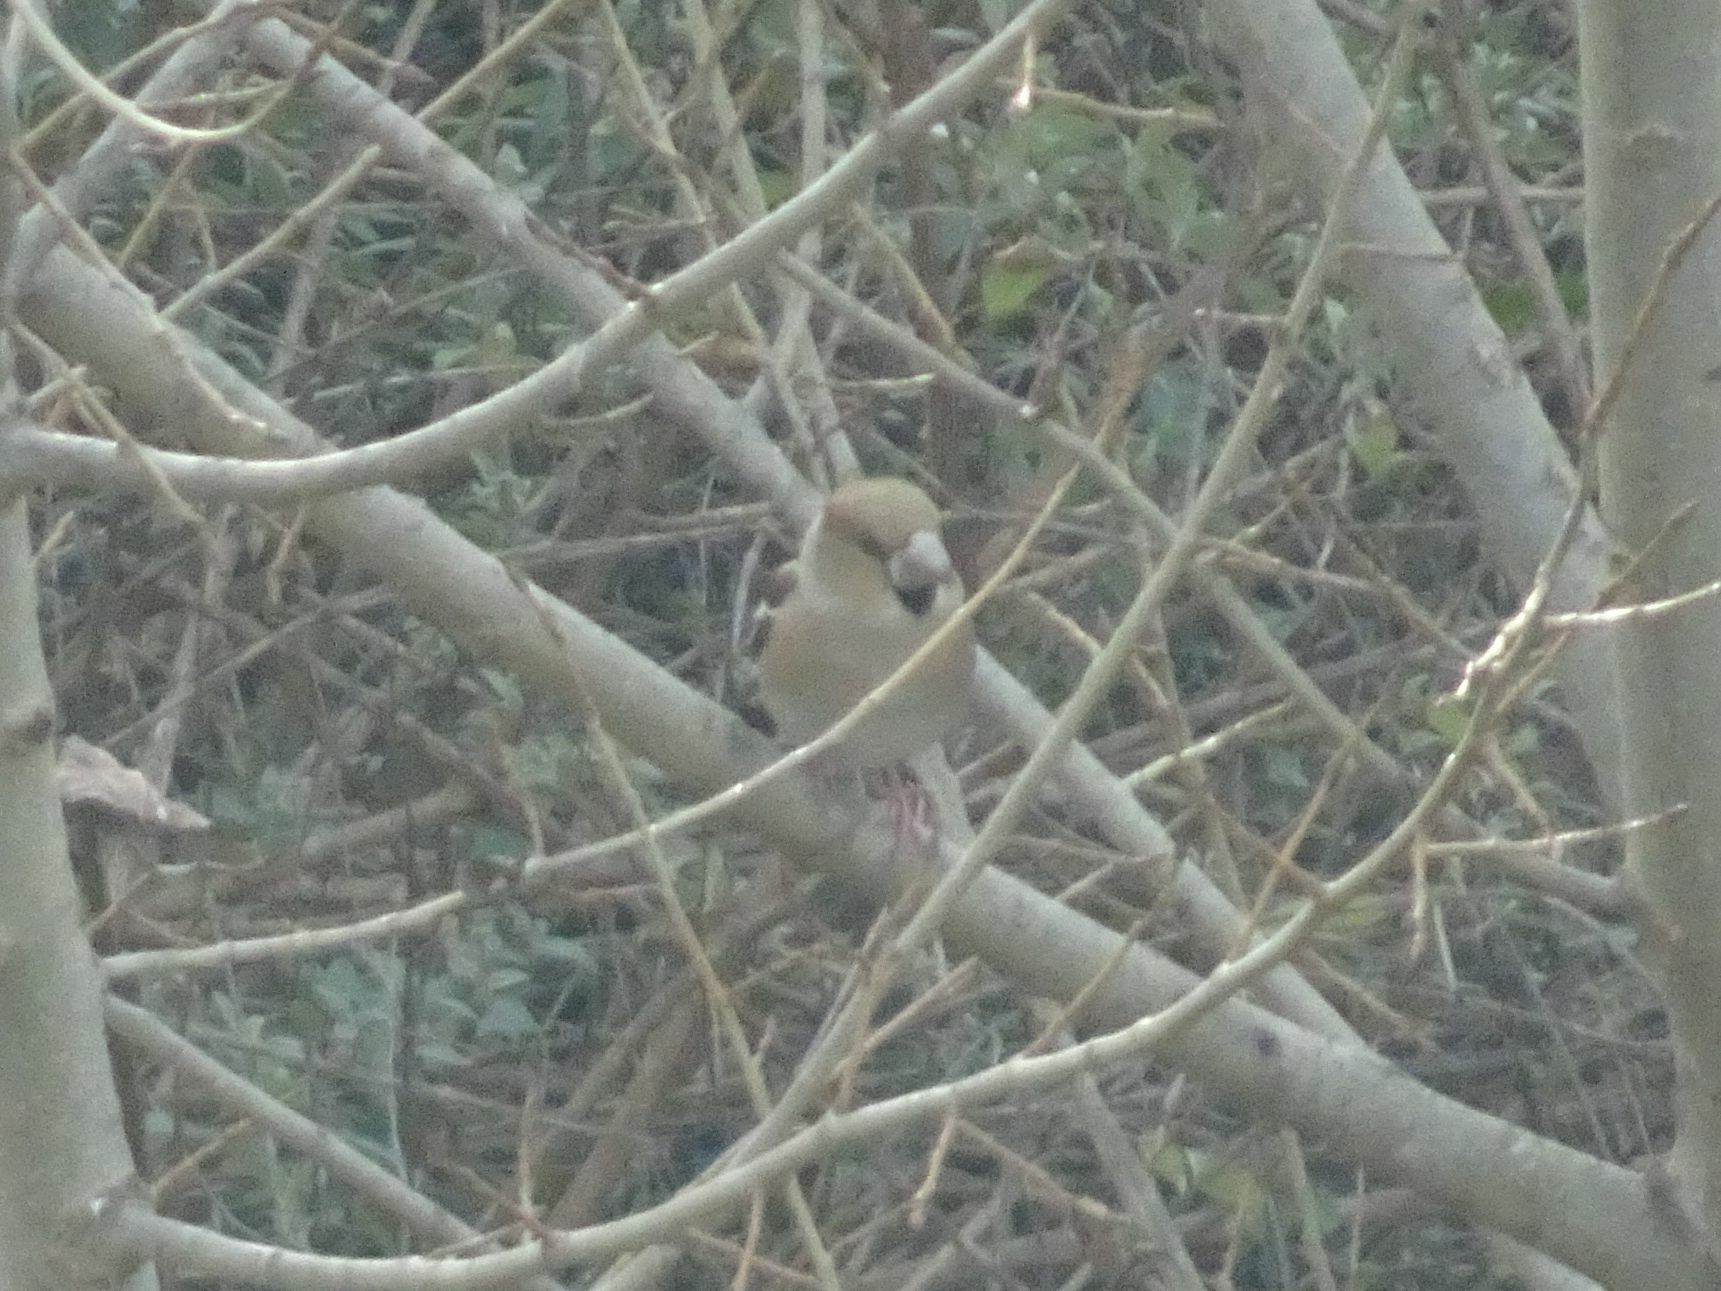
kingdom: Animalia
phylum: Chordata
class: Aves
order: Passeriformes
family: Fringillidae
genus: Coccothraustes
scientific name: Coccothraustes coccothraustes
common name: Hawfinch
